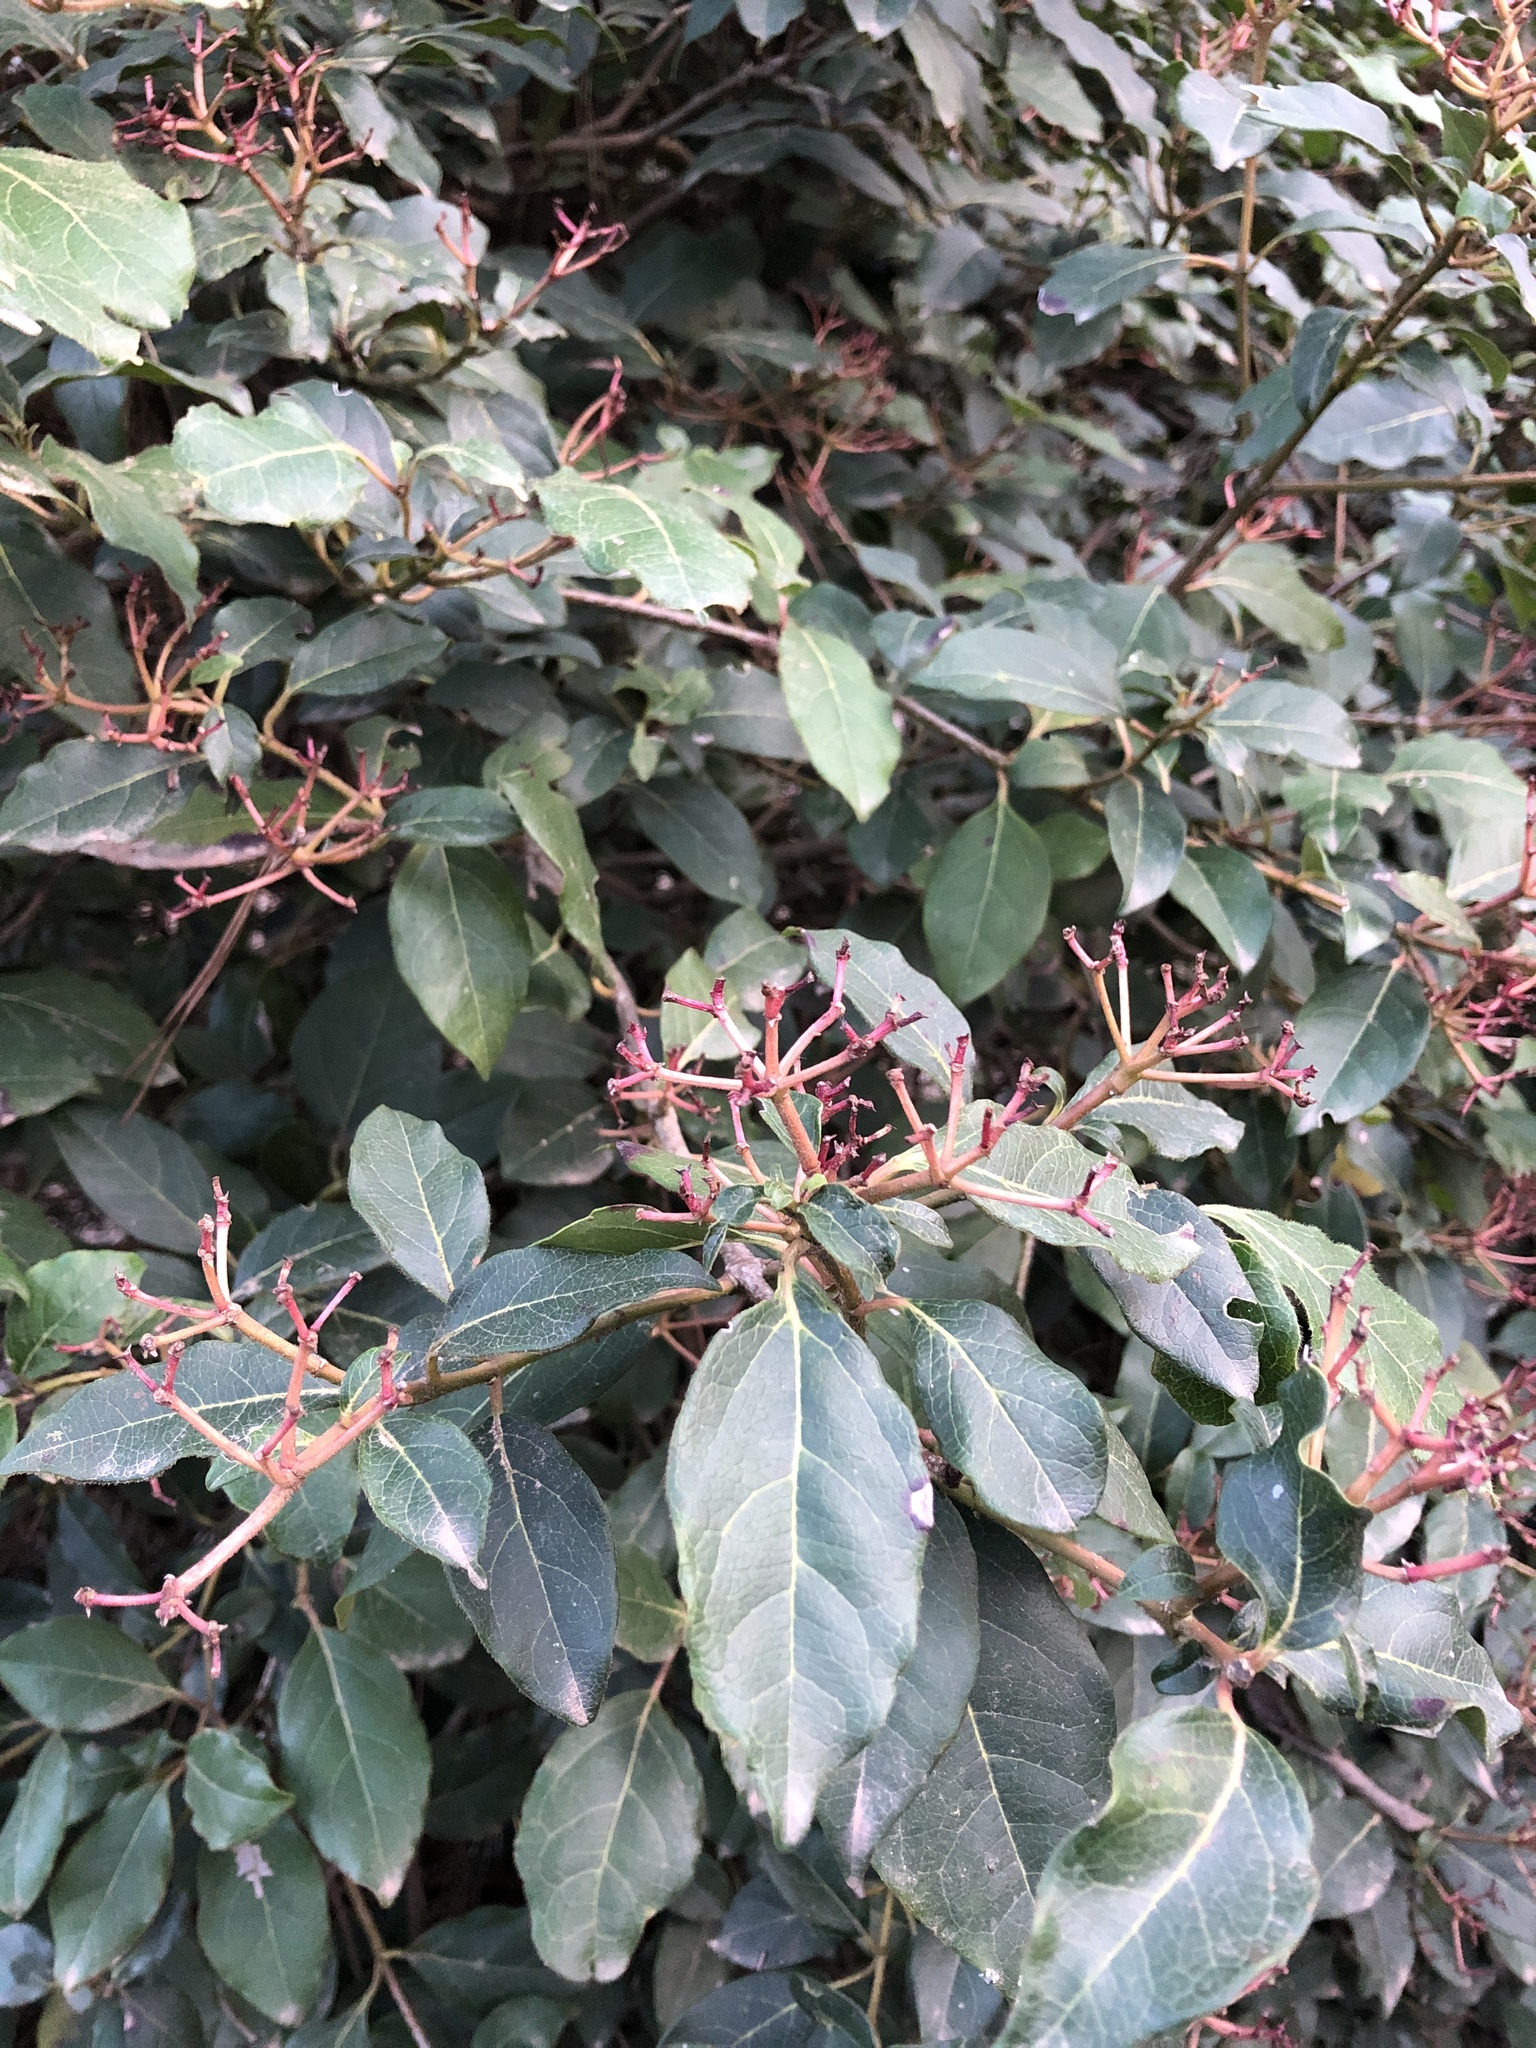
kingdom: Plantae
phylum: Tracheophyta
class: Magnoliopsida
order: Dipsacales
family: Viburnaceae
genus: Viburnum
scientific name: Viburnum tinus
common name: Laurustinus
